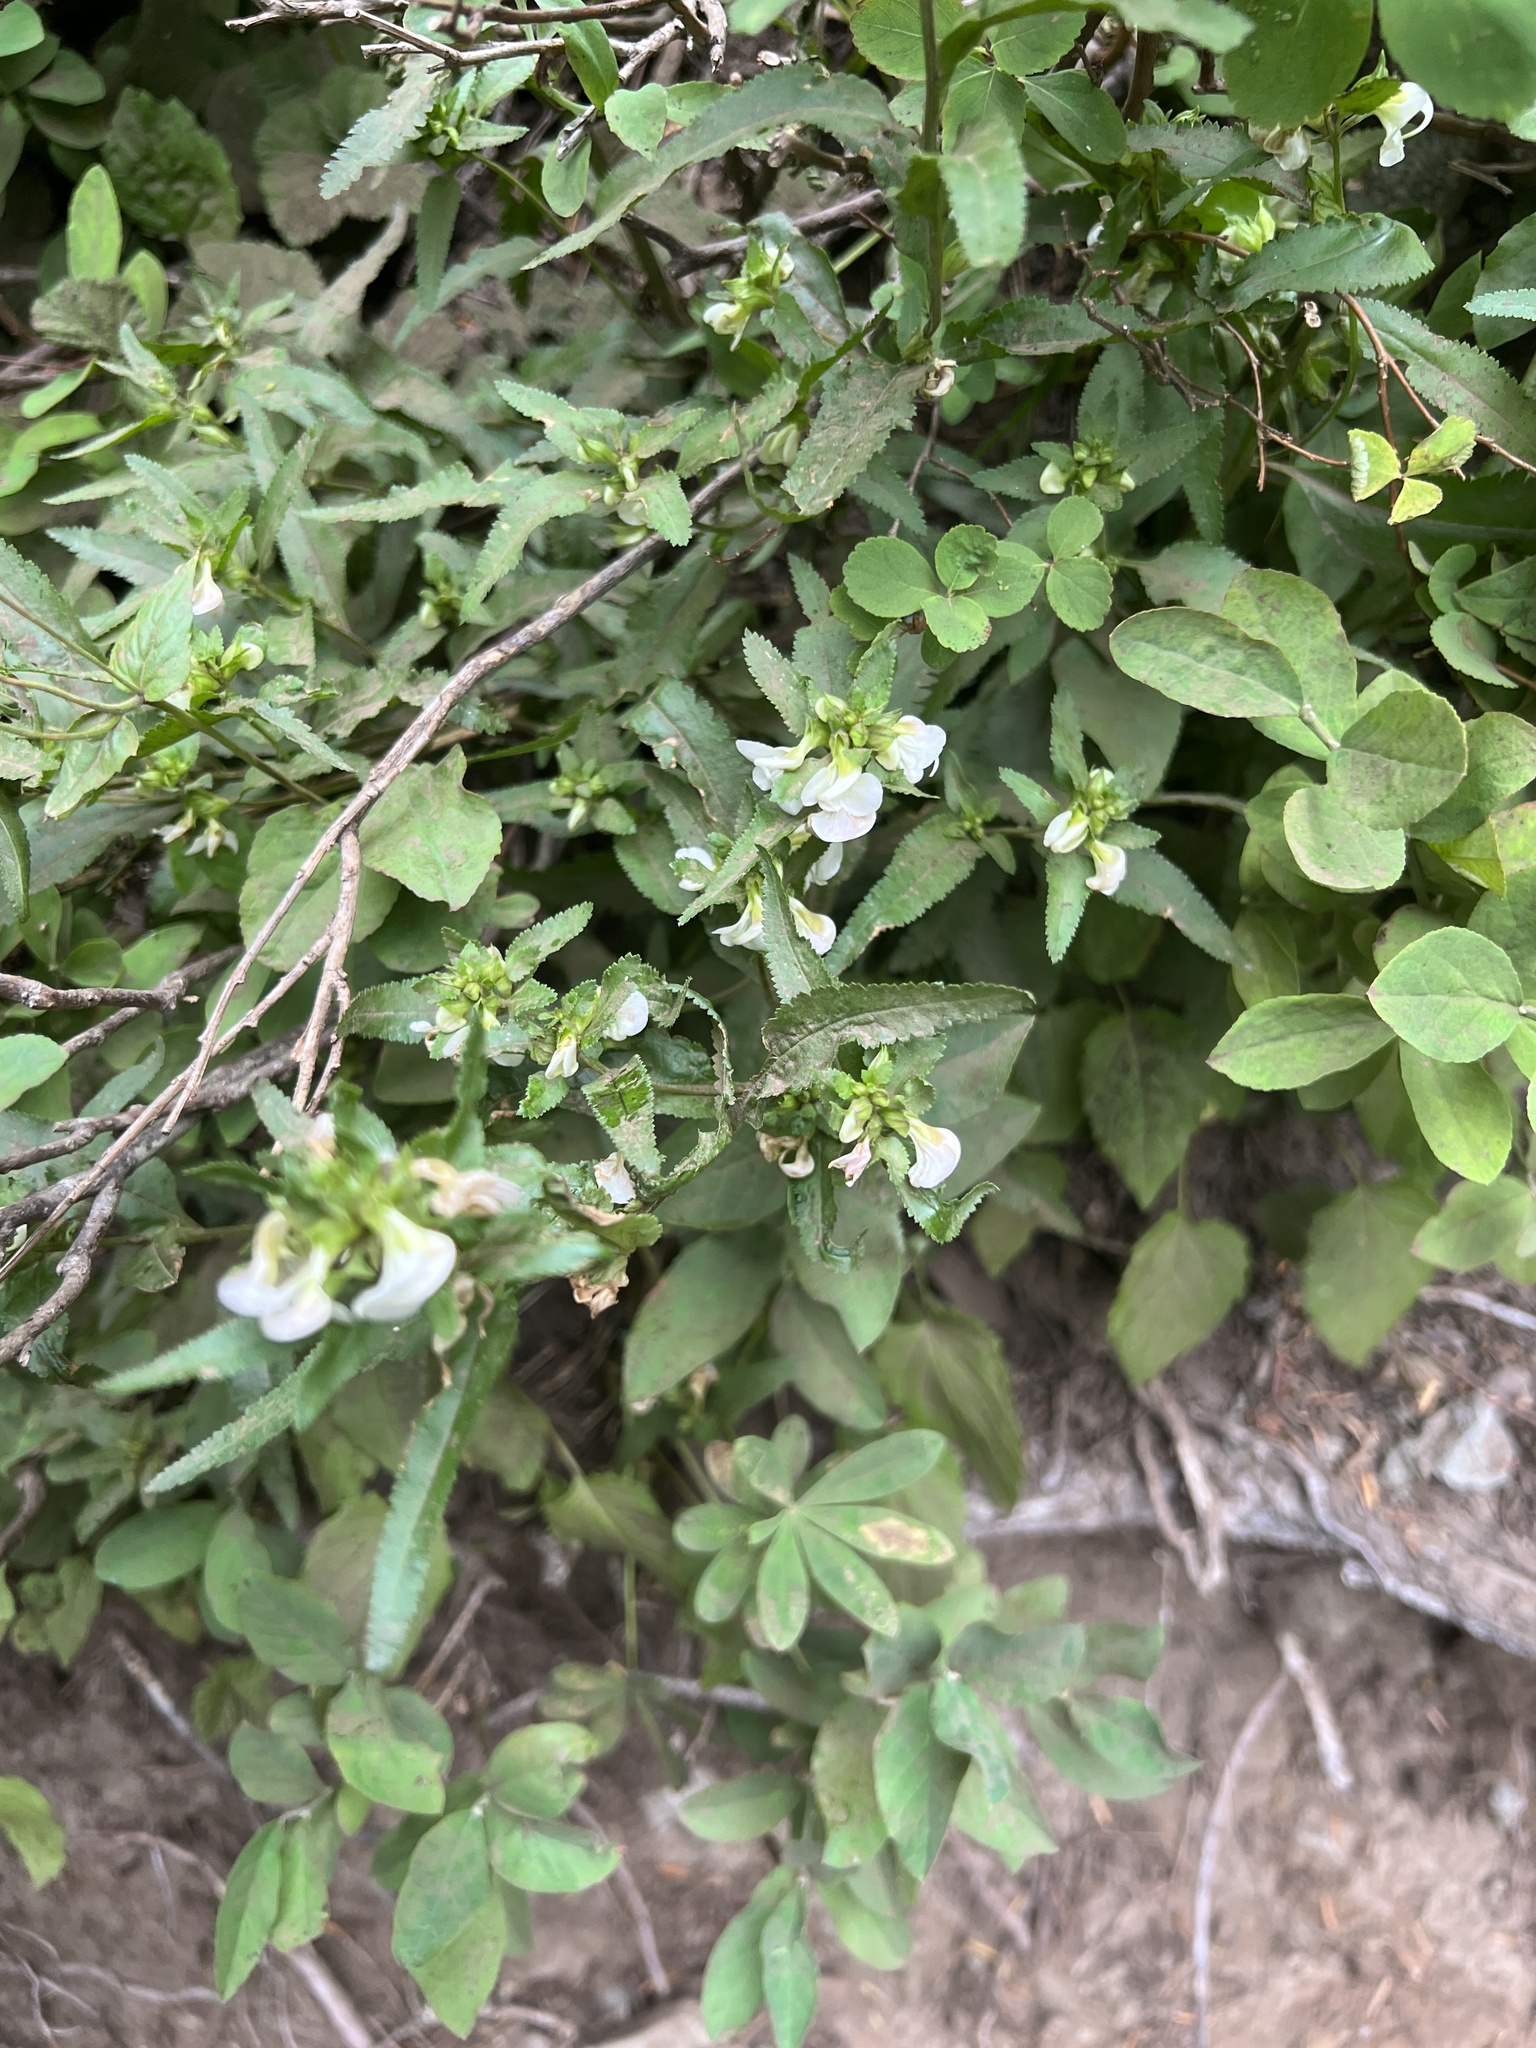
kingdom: Plantae
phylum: Tracheophyta
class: Magnoliopsida
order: Lamiales
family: Orobanchaceae
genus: Pedicularis
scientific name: Pedicularis racemosa
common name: Leafy lousewort
